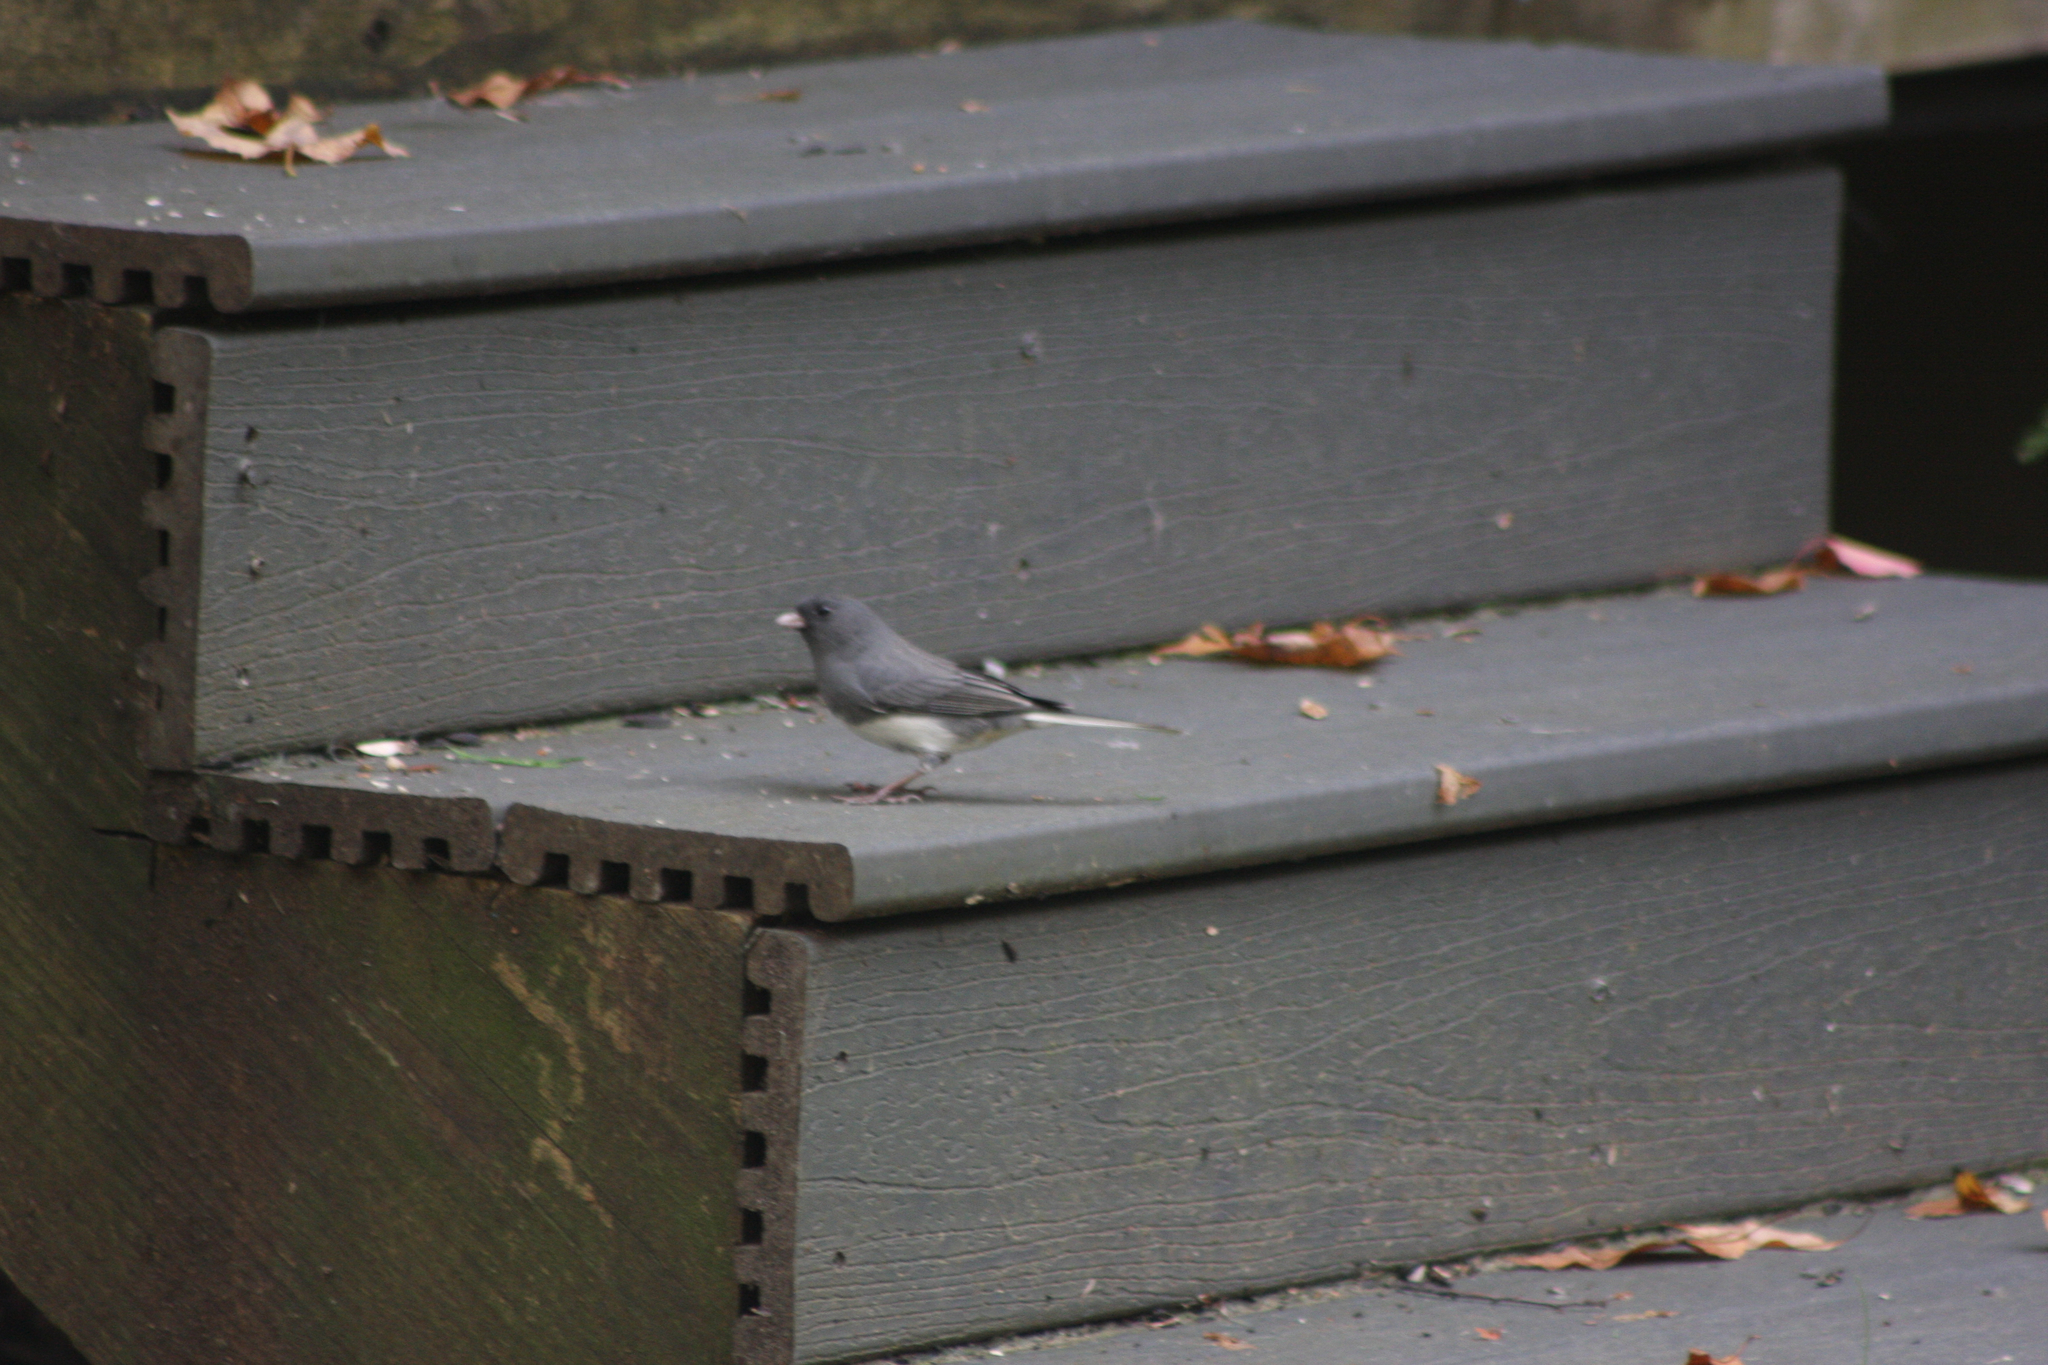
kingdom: Animalia
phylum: Chordata
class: Aves
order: Passeriformes
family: Passerellidae
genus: Junco
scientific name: Junco hyemalis
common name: Dark-eyed junco
